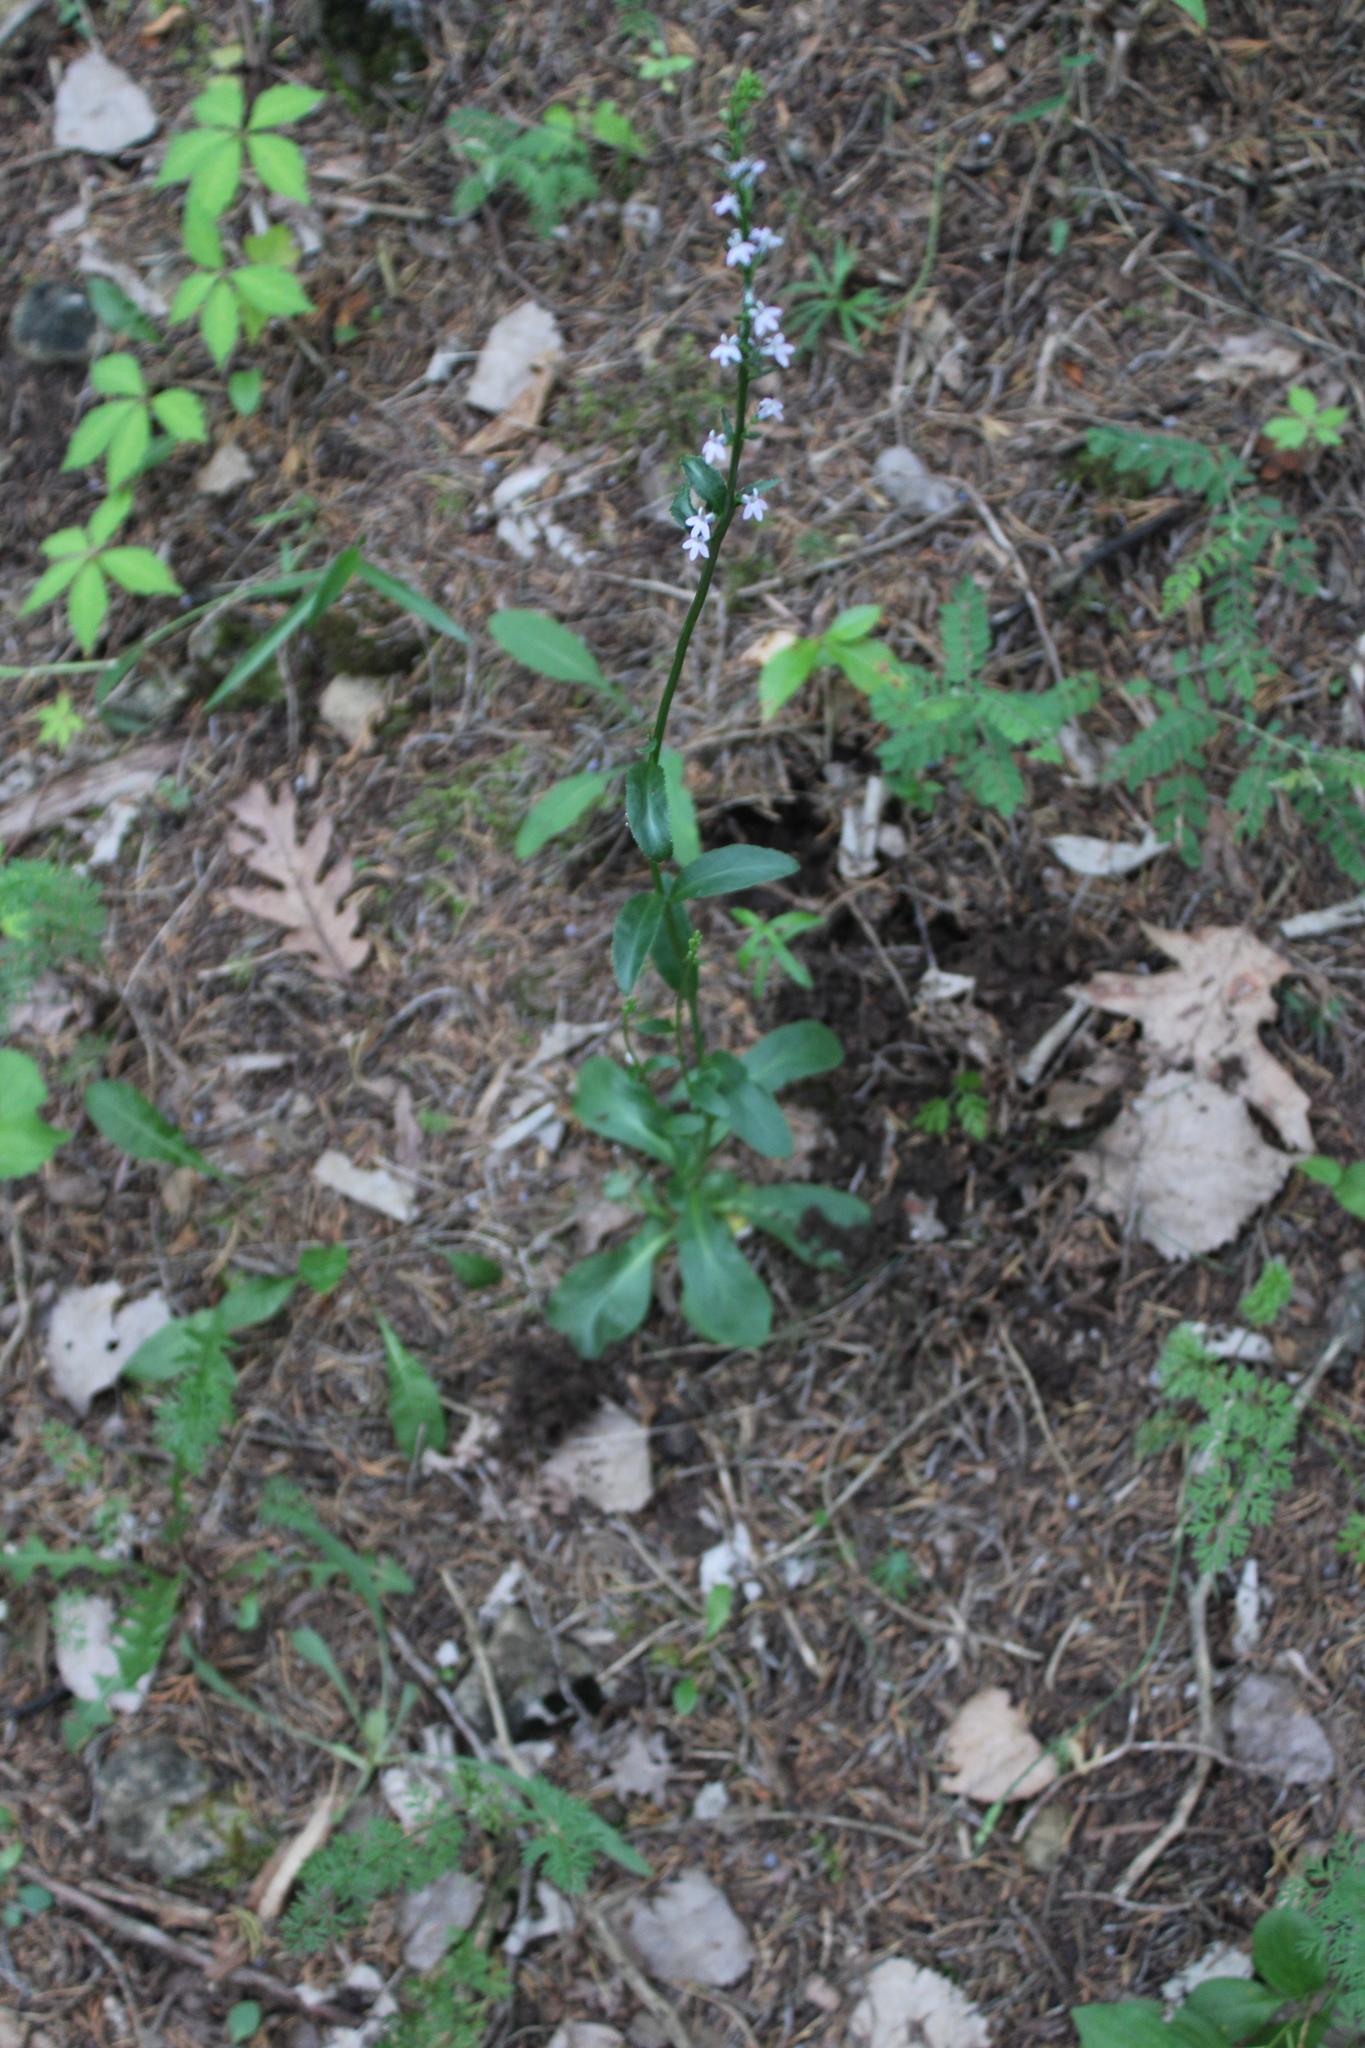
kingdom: Plantae
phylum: Tracheophyta
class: Magnoliopsida
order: Asterales
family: Campanulaceae
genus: Lobelia
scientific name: Lobelia spicata
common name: Pale-spike lobelia
